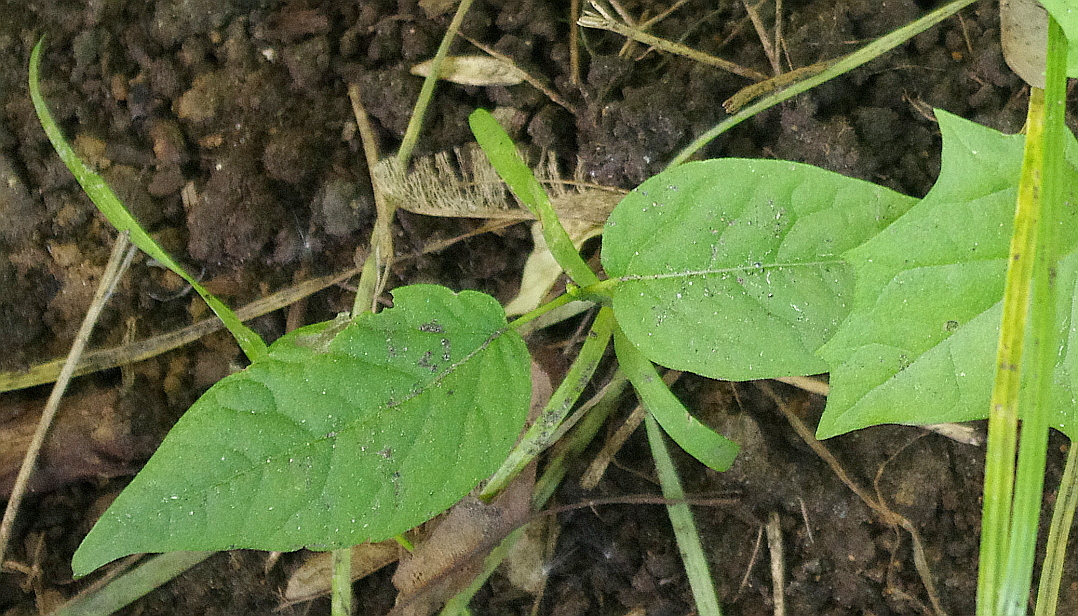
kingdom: Plantae
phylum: Tracheophyta
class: Magnoliopsida
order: Sapindales
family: Sapindaceae
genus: Acer
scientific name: Acer negundo
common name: Ashleaf maple
